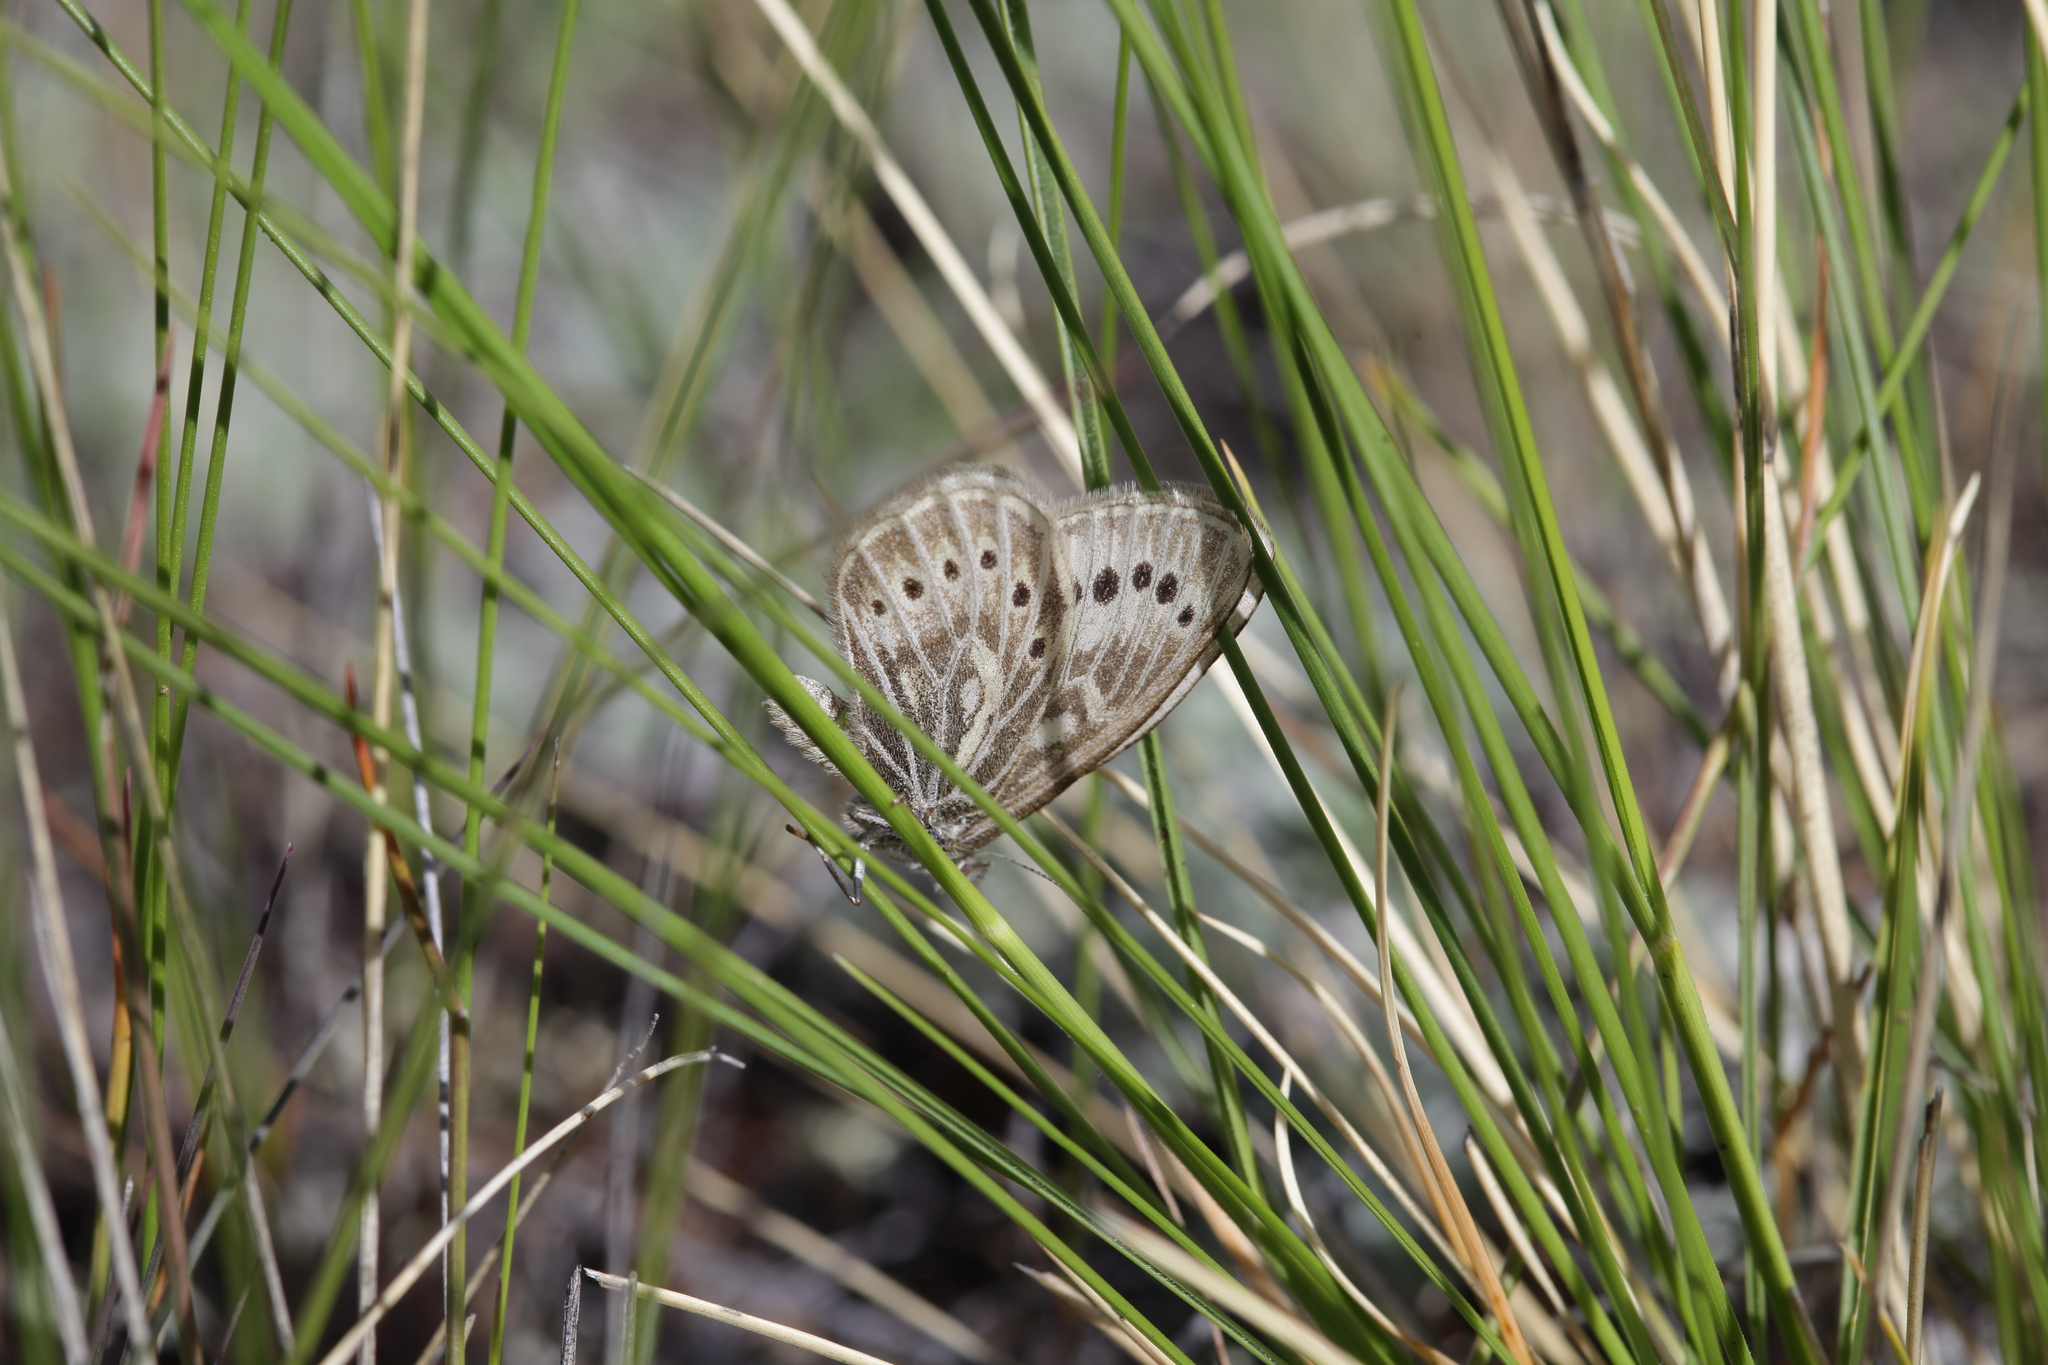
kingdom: Animalia
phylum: Arthropoda
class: Insecta
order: Lepidoptera
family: Nymphalidae
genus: Triphysa
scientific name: Triphysa phryne
